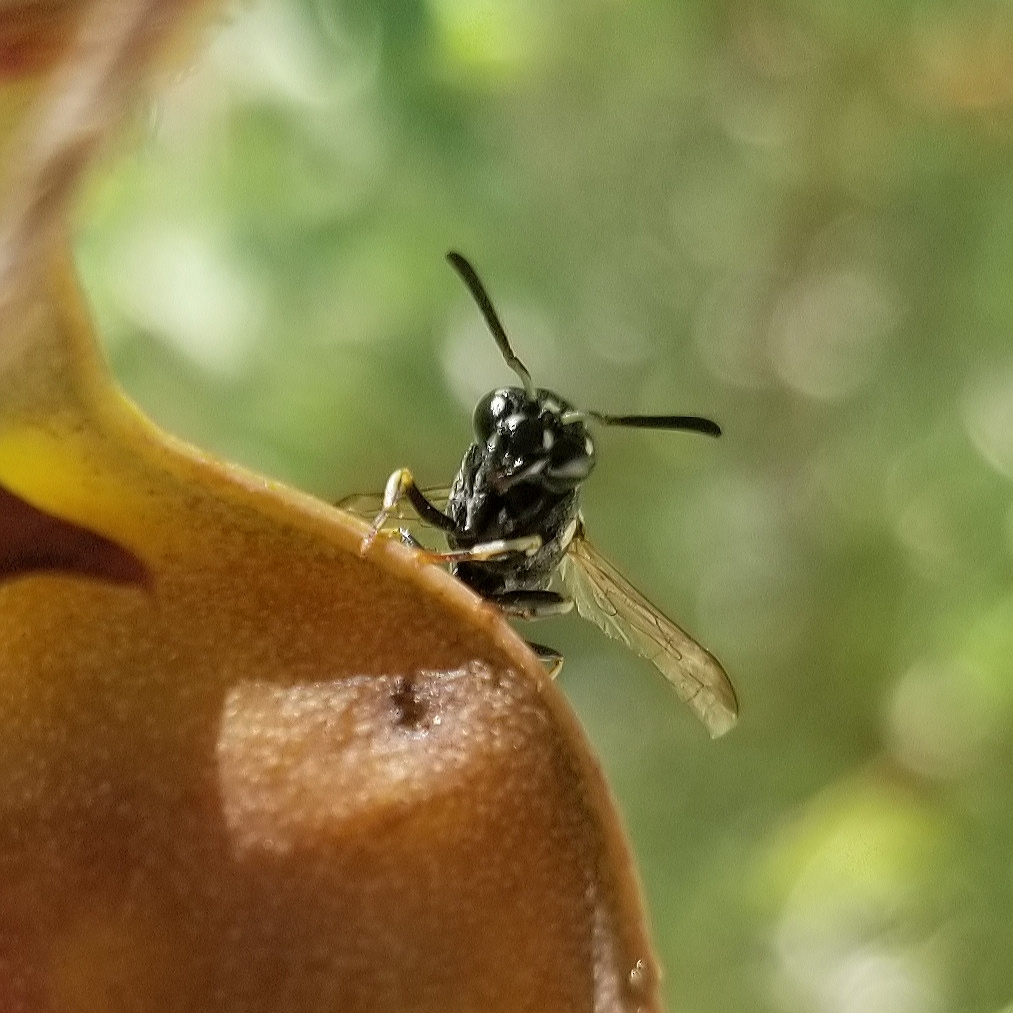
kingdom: Animalia
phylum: Arthropoda
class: Insecta
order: Hymenoptera
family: Eumenidae
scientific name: Eumenidae
